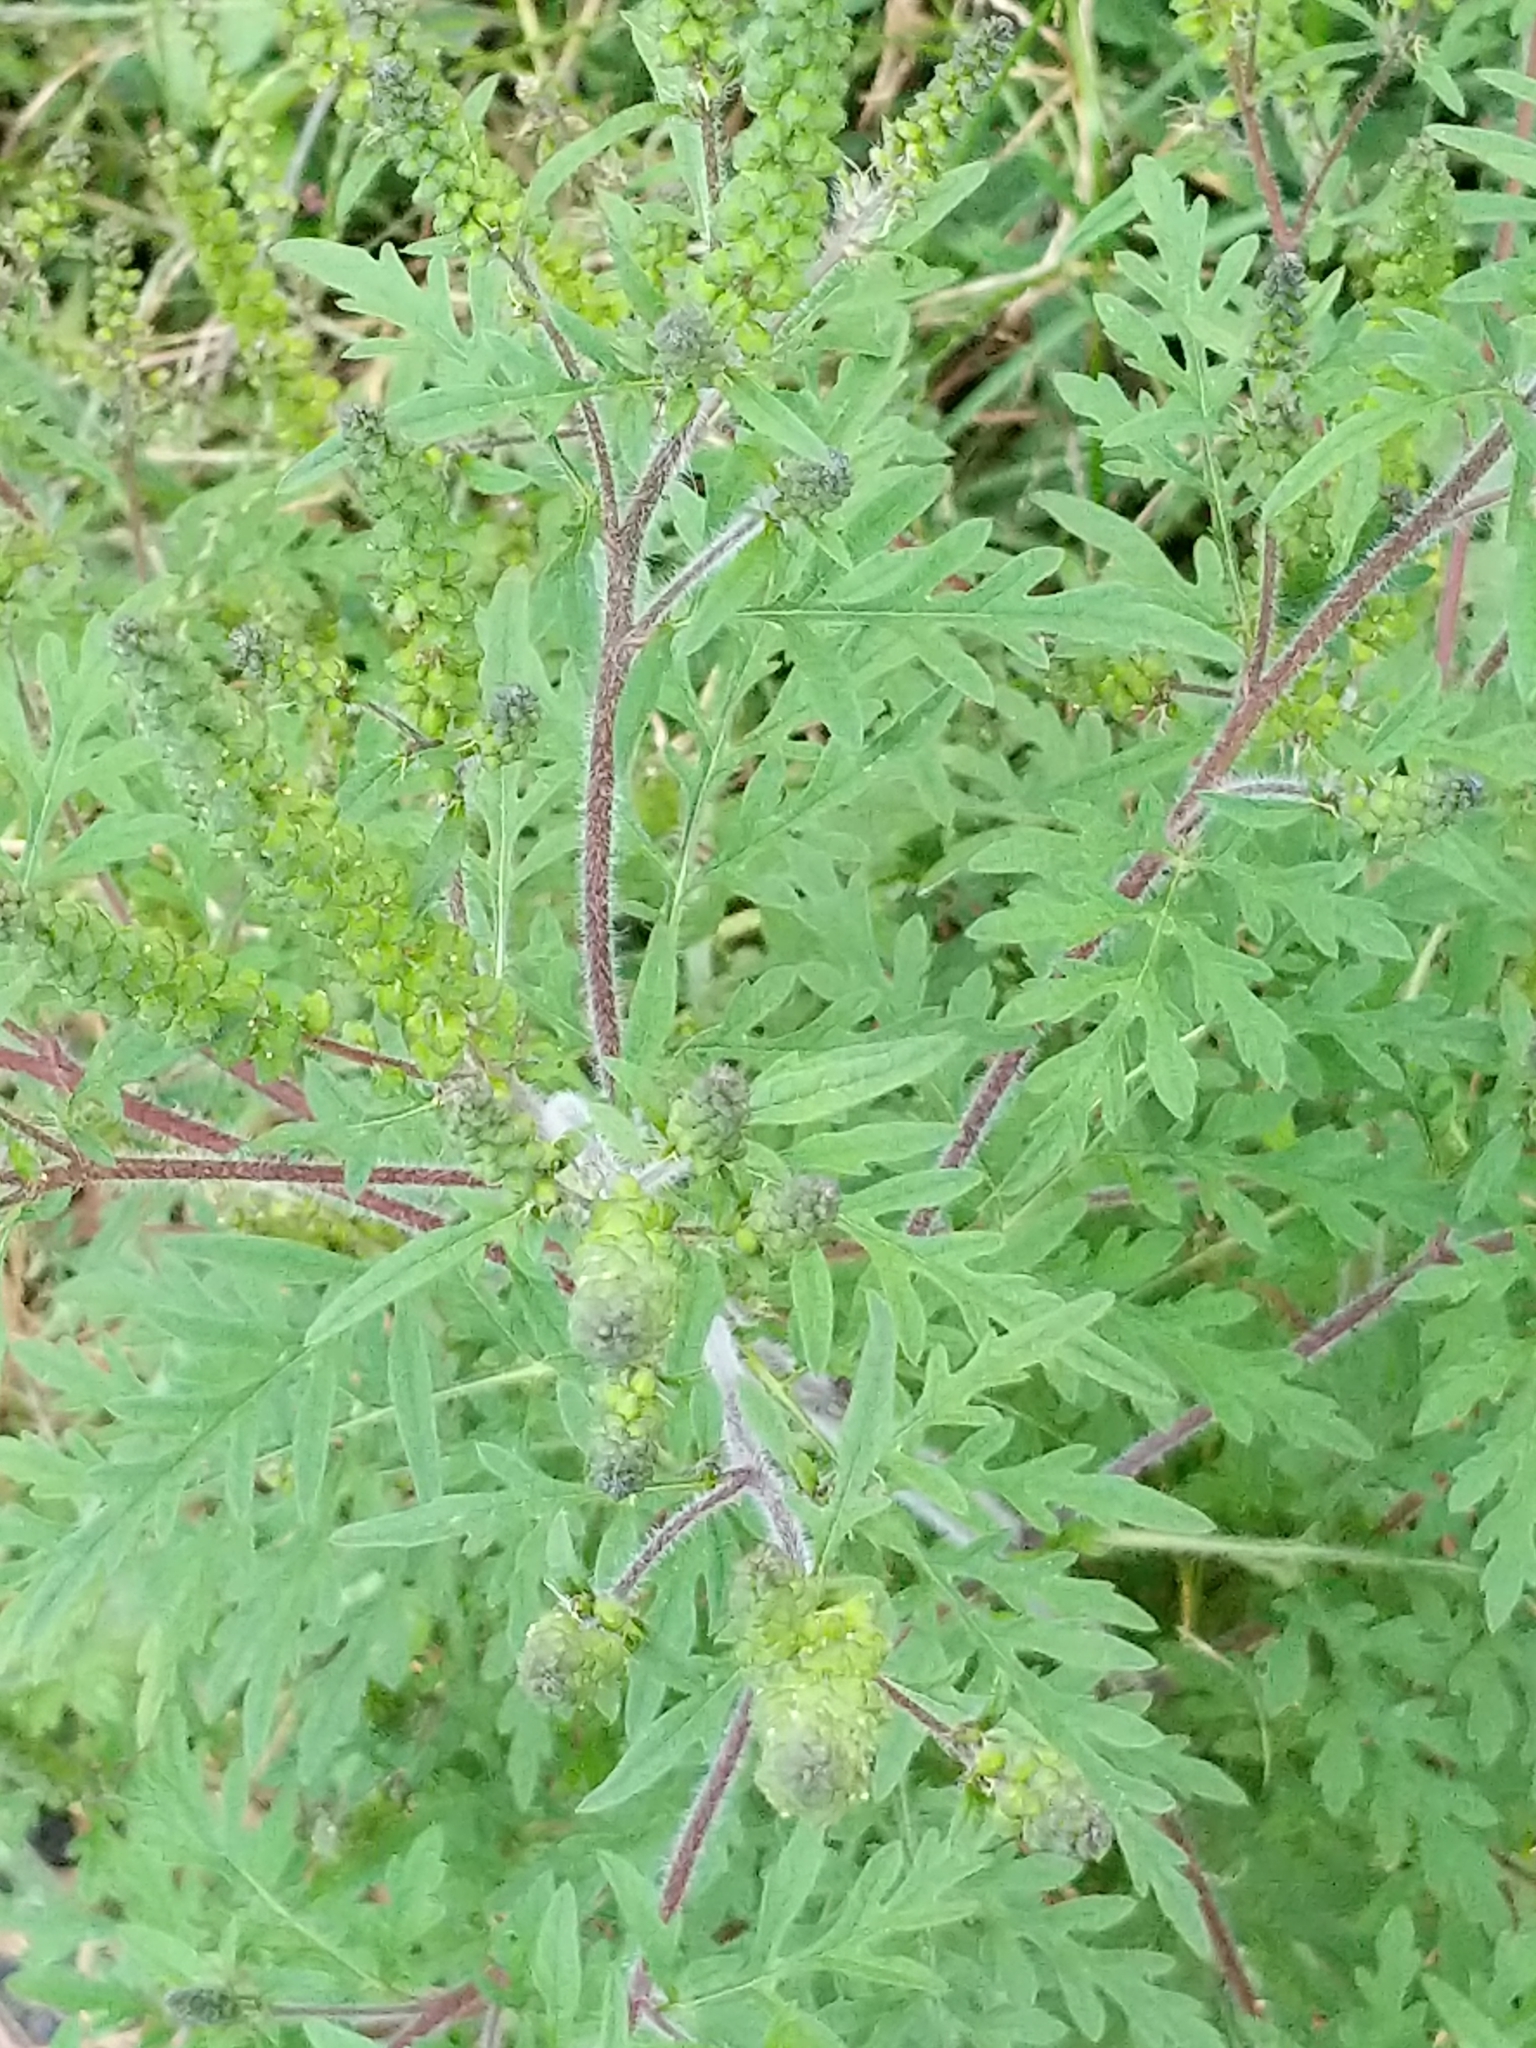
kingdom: Plantae
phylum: Tracheophyta
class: Magnoliopsida
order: Asterales
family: Asteraceae
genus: Ambrosia
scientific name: Ambrosia artemisiifolia
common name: Annual ragweed
